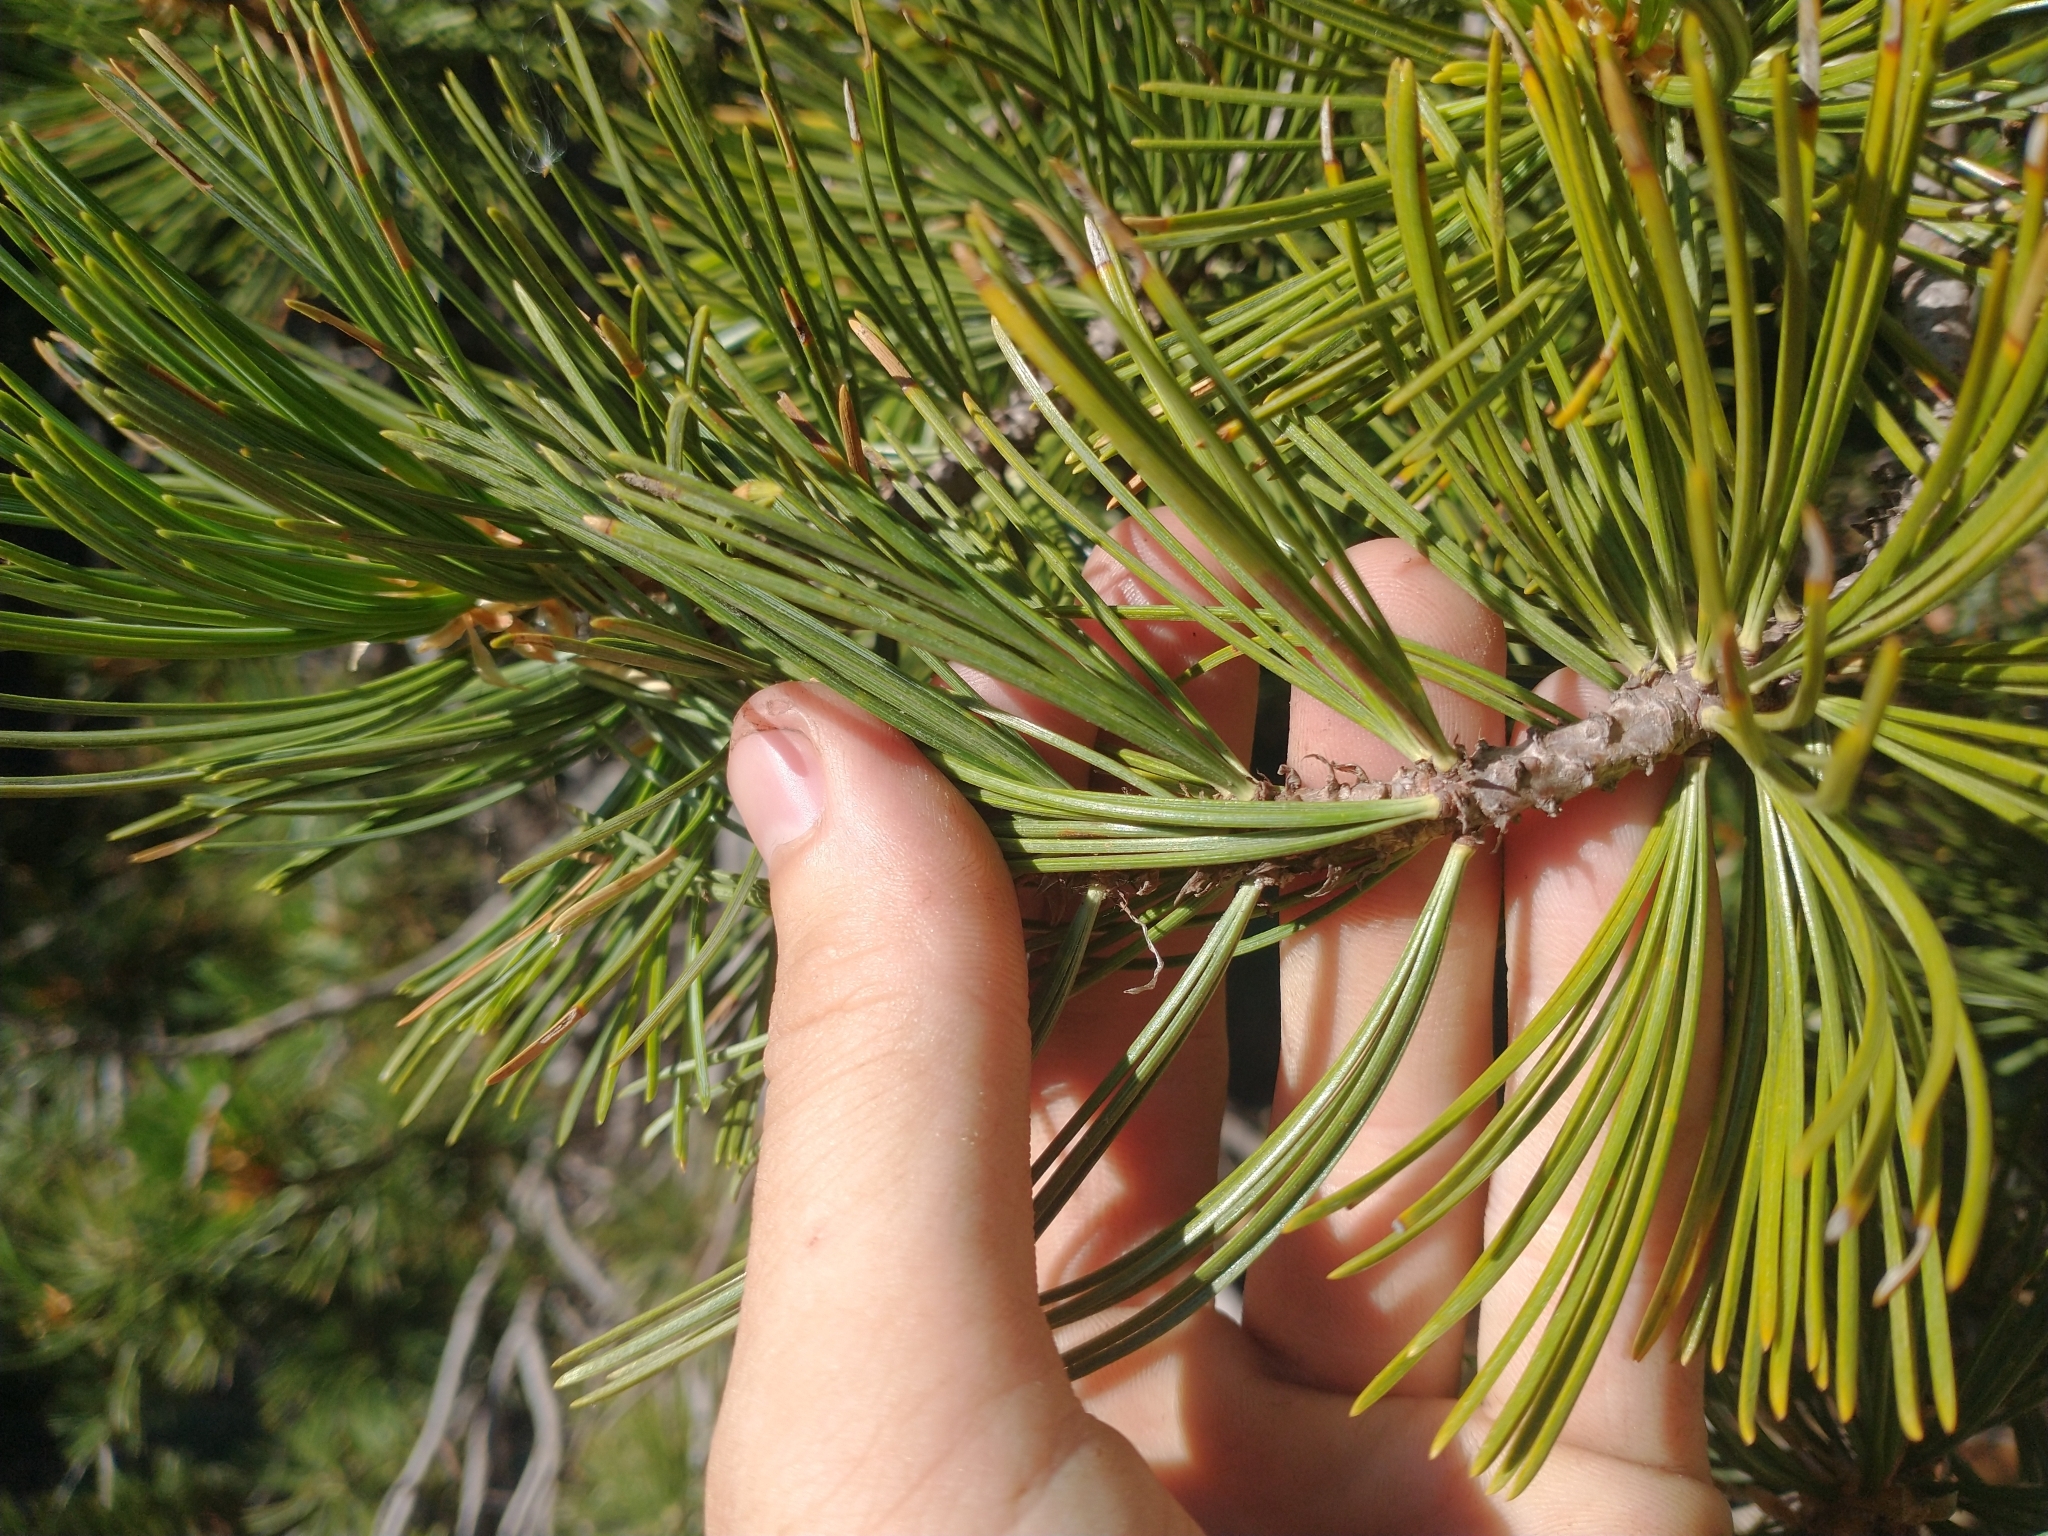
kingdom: Plantae
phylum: Tracheophyta
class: Pinopsida
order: Pinales
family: Pinaceae
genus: Pinus
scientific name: Pinus albicaulis
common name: Whitebark pine
